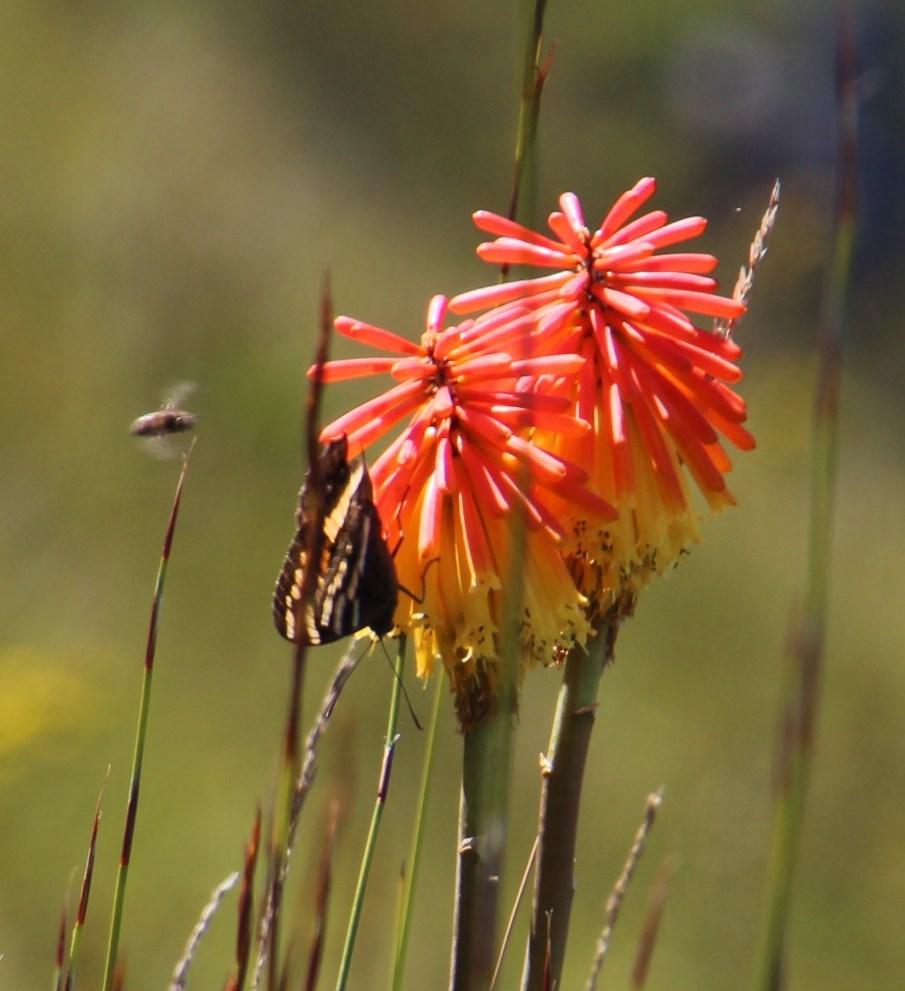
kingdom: Animalia
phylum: Arthropoda
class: Insecta
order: Lepidoptera
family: Nymphalidae
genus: Meneris
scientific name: Meneris Aeropetes tulbaghia
